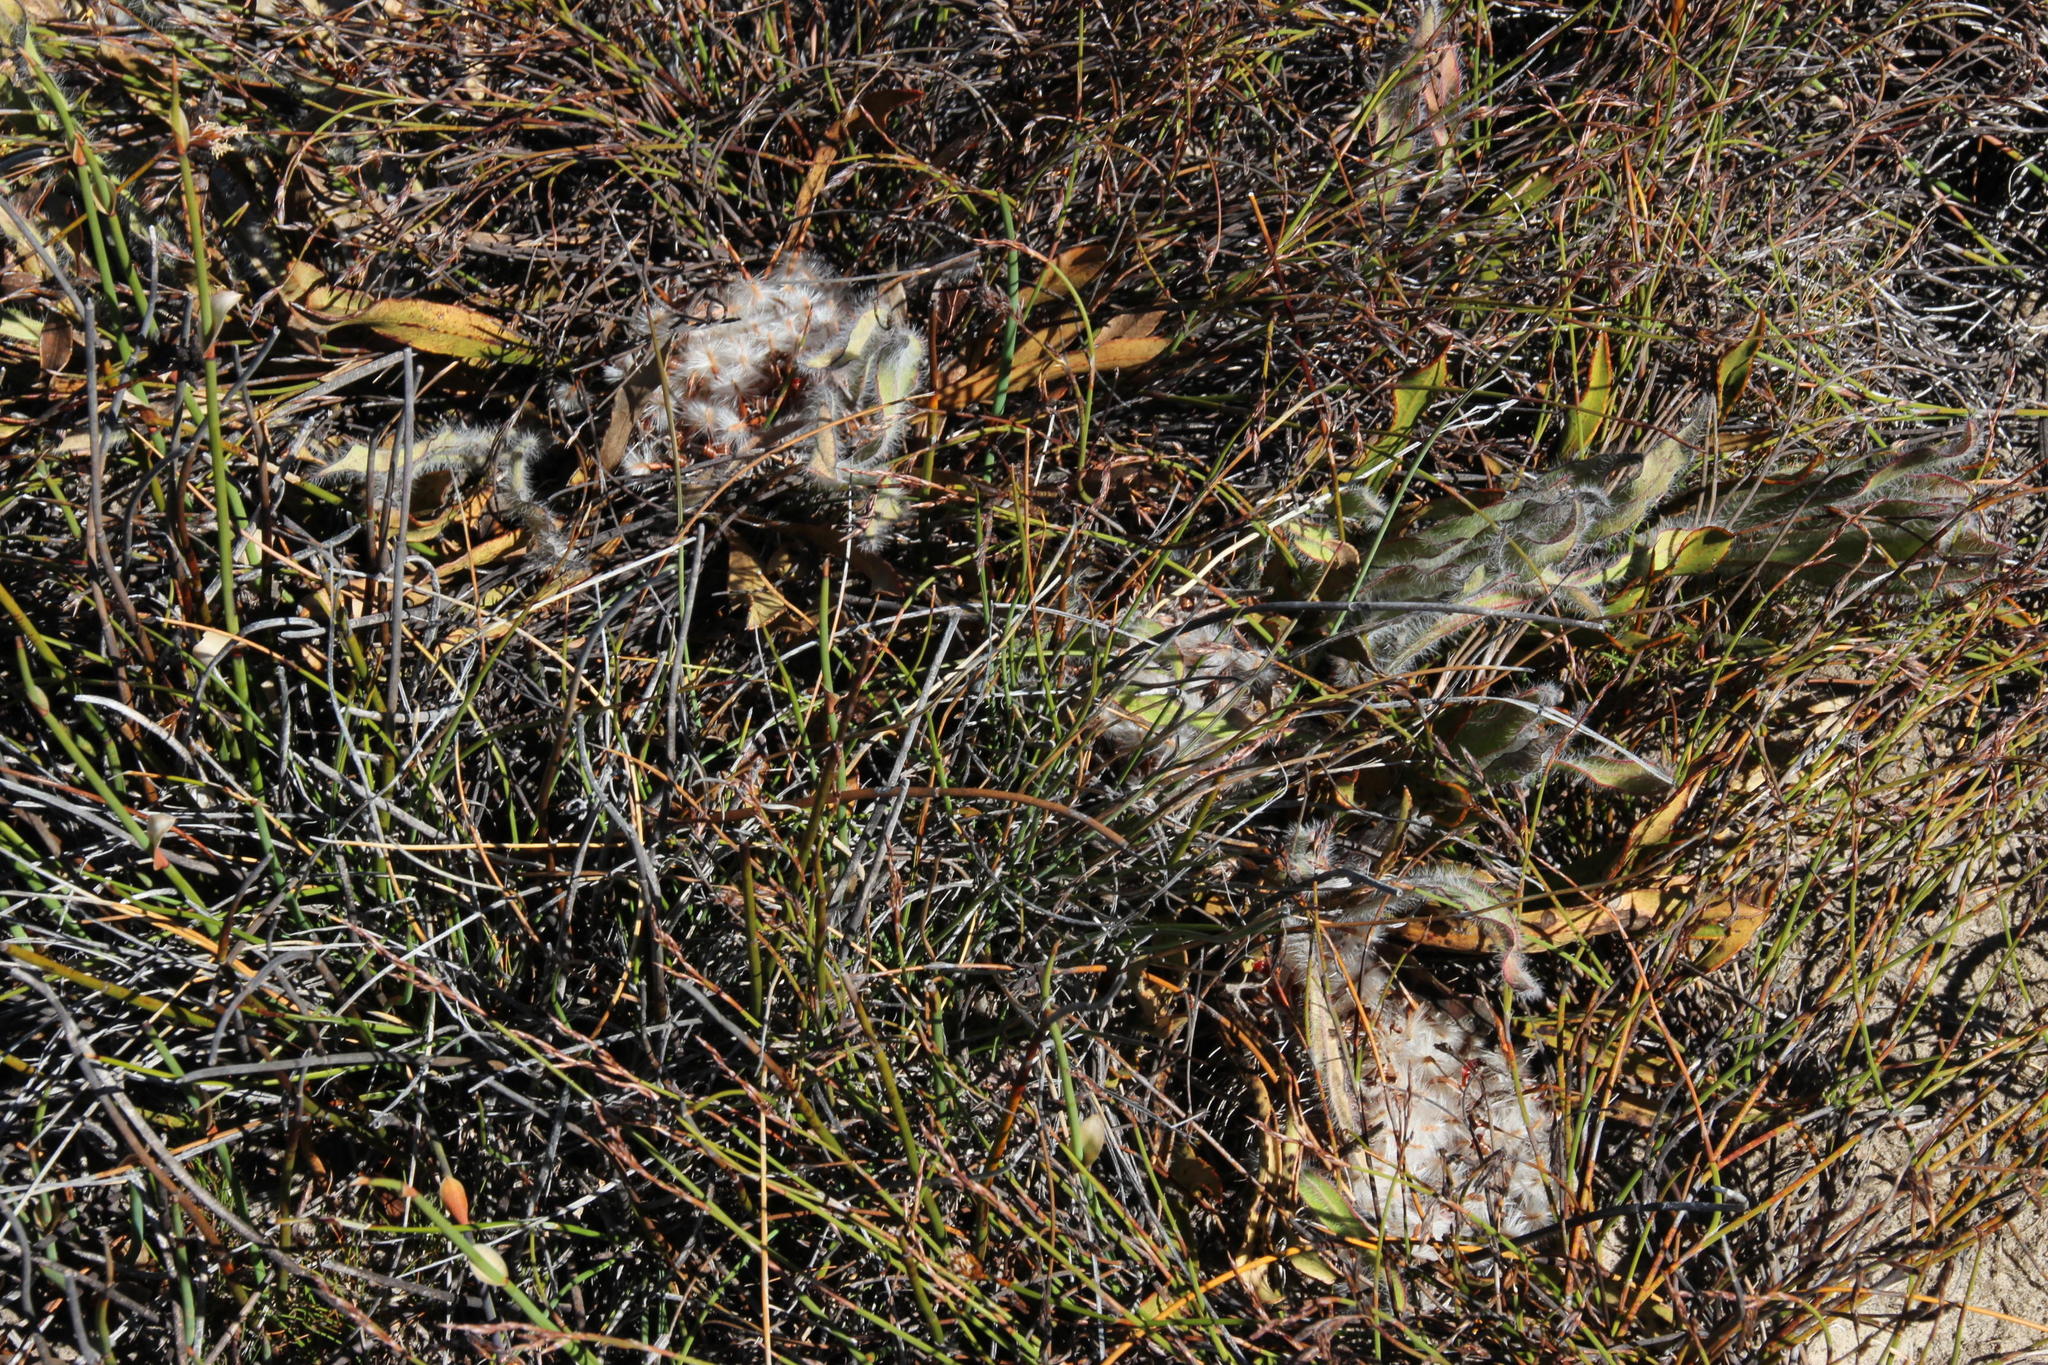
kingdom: Plantae
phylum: Tracheophyta
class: Magnoliopsida
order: Proteales
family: Proteaceae
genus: Protea
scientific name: Protea scabriuscula
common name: Hoary sugarbush
